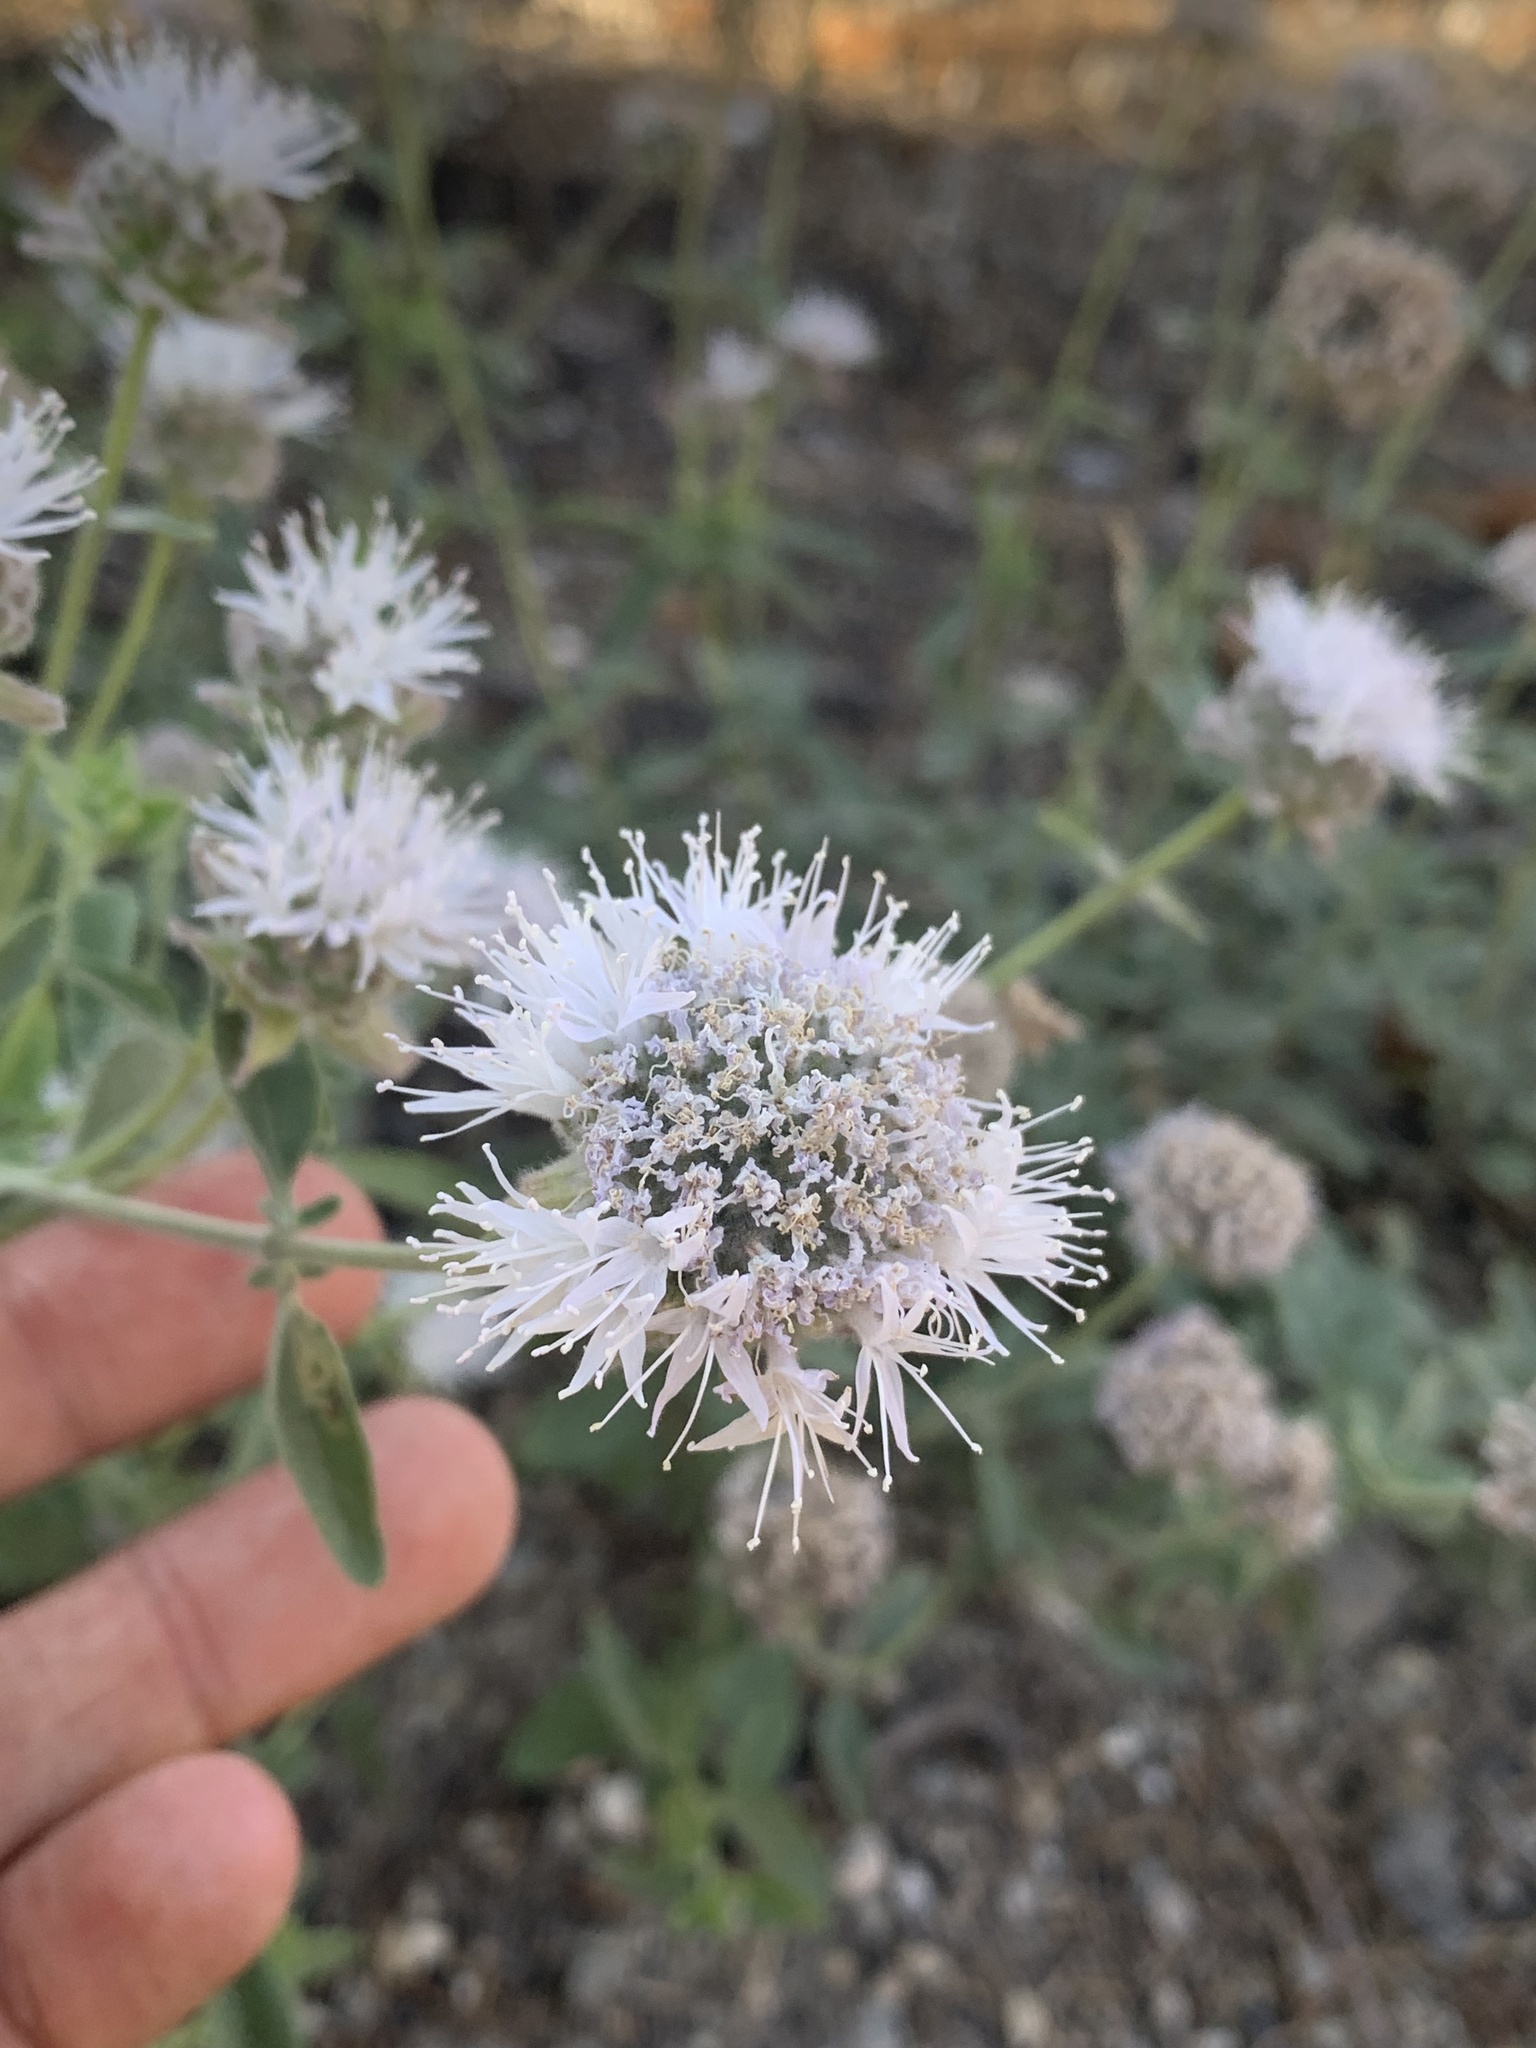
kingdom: Plantae
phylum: Tracheophyta
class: Magnoliopsida
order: Lamiales
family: Lamiaceae
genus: Monardella
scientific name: Monardella odoratissima
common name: Pacific monardella
